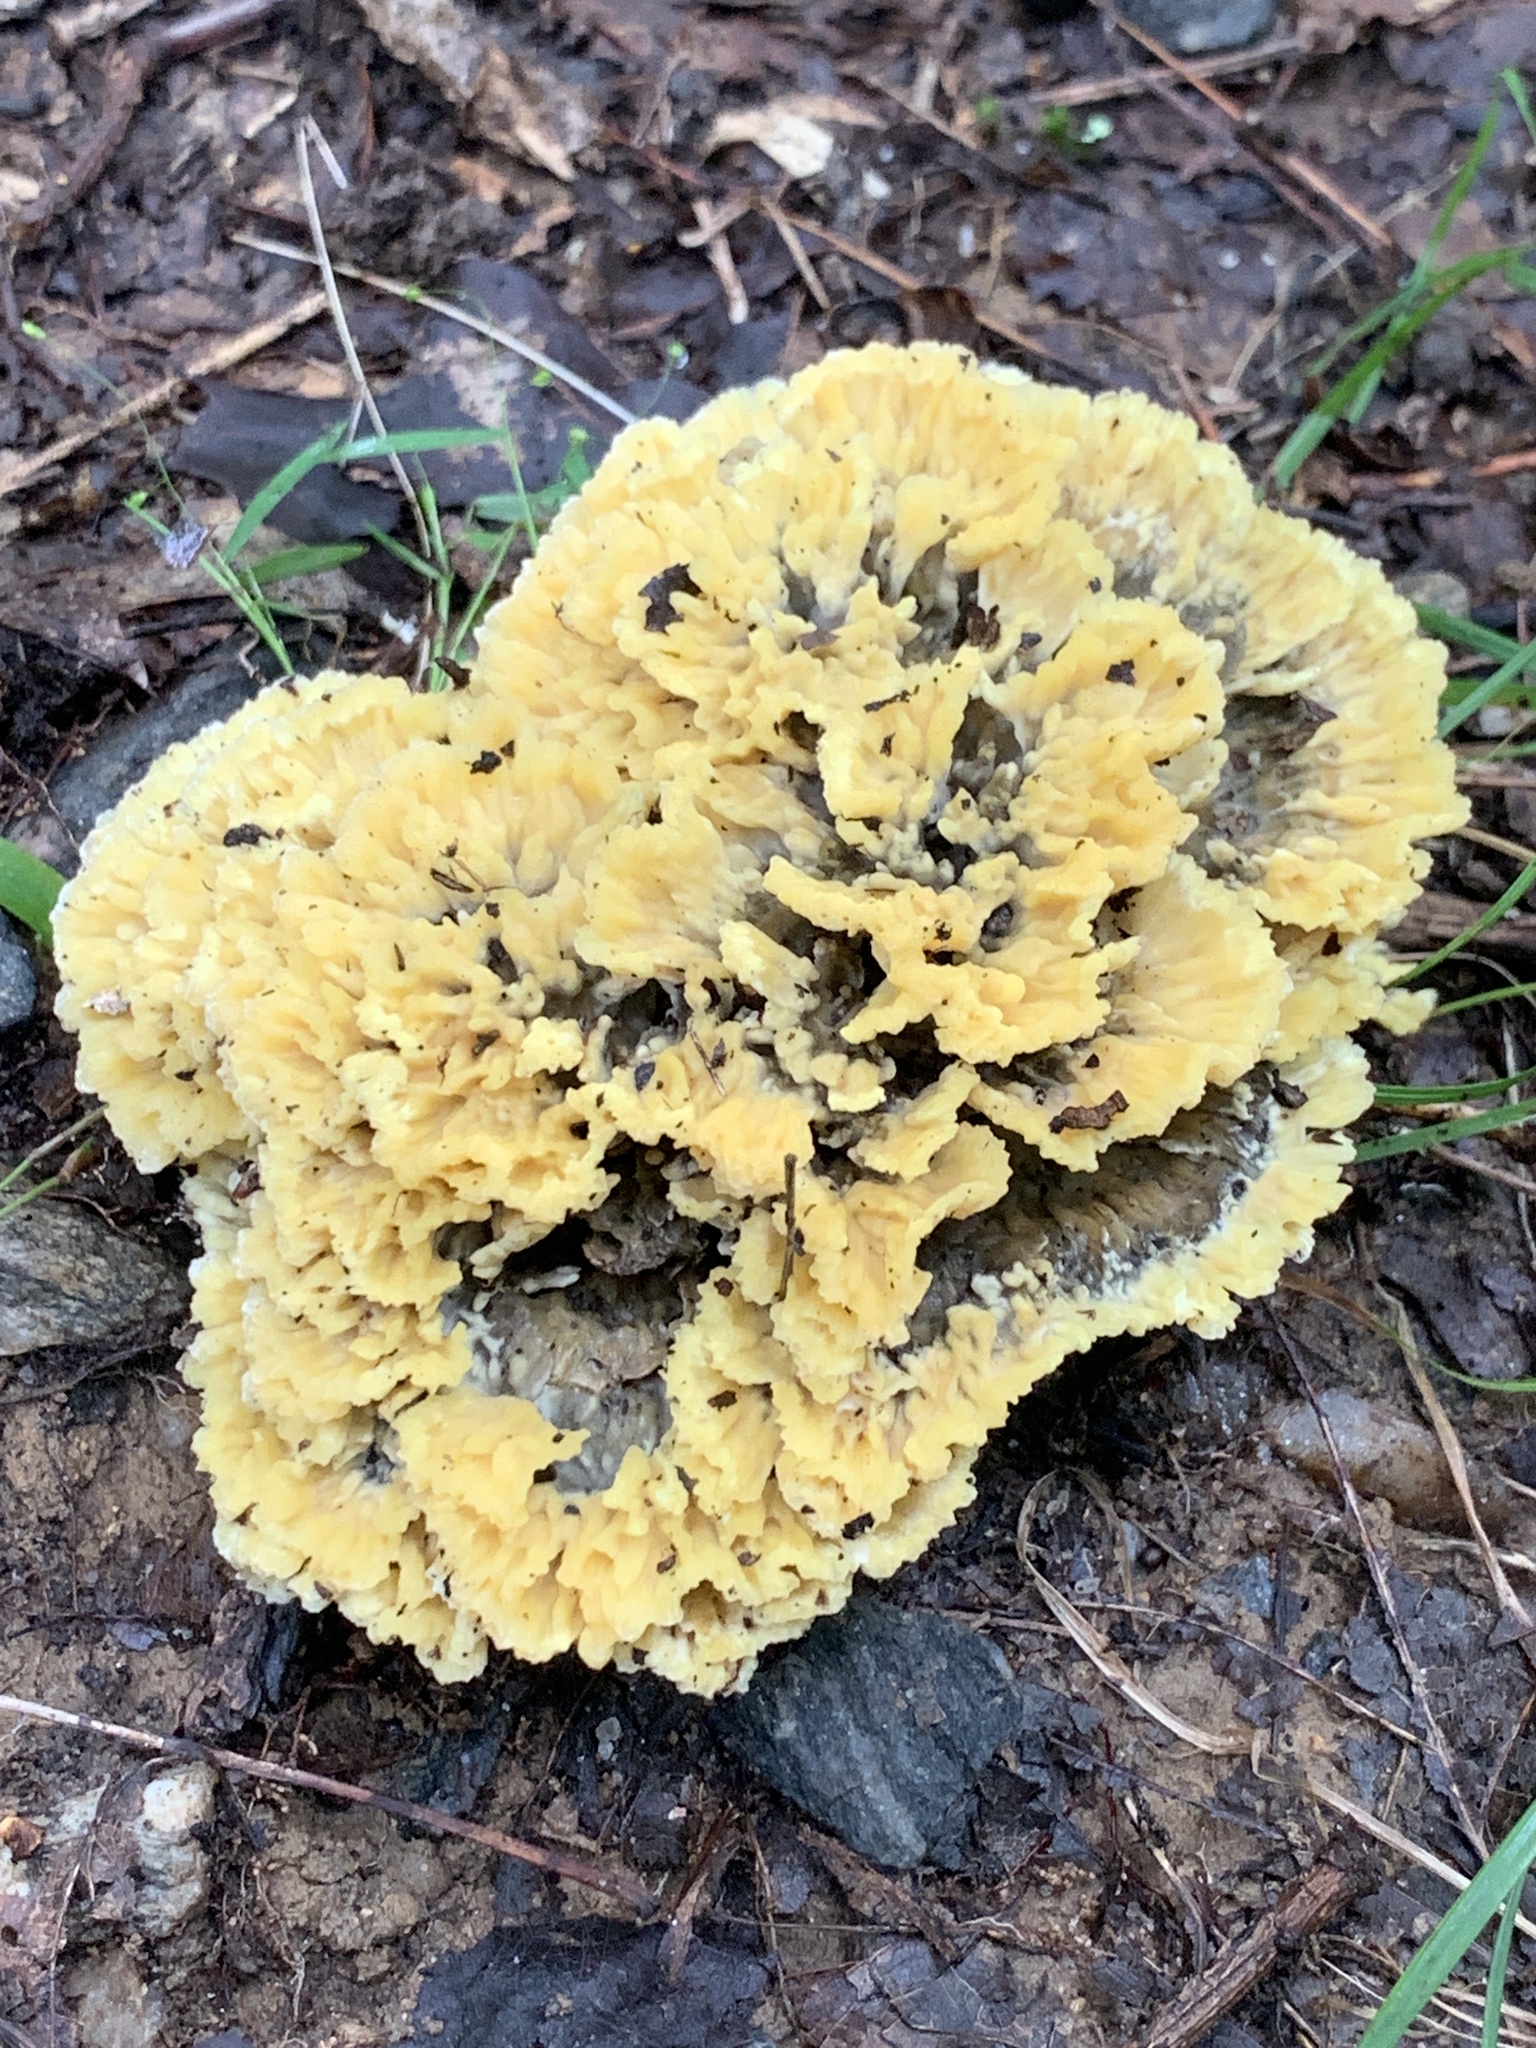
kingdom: Fungi
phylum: Basidiomycota
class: Agaricomycetes
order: Thelephorales
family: Thelephoraceae
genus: Thelephora
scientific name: Thelephora vialis
